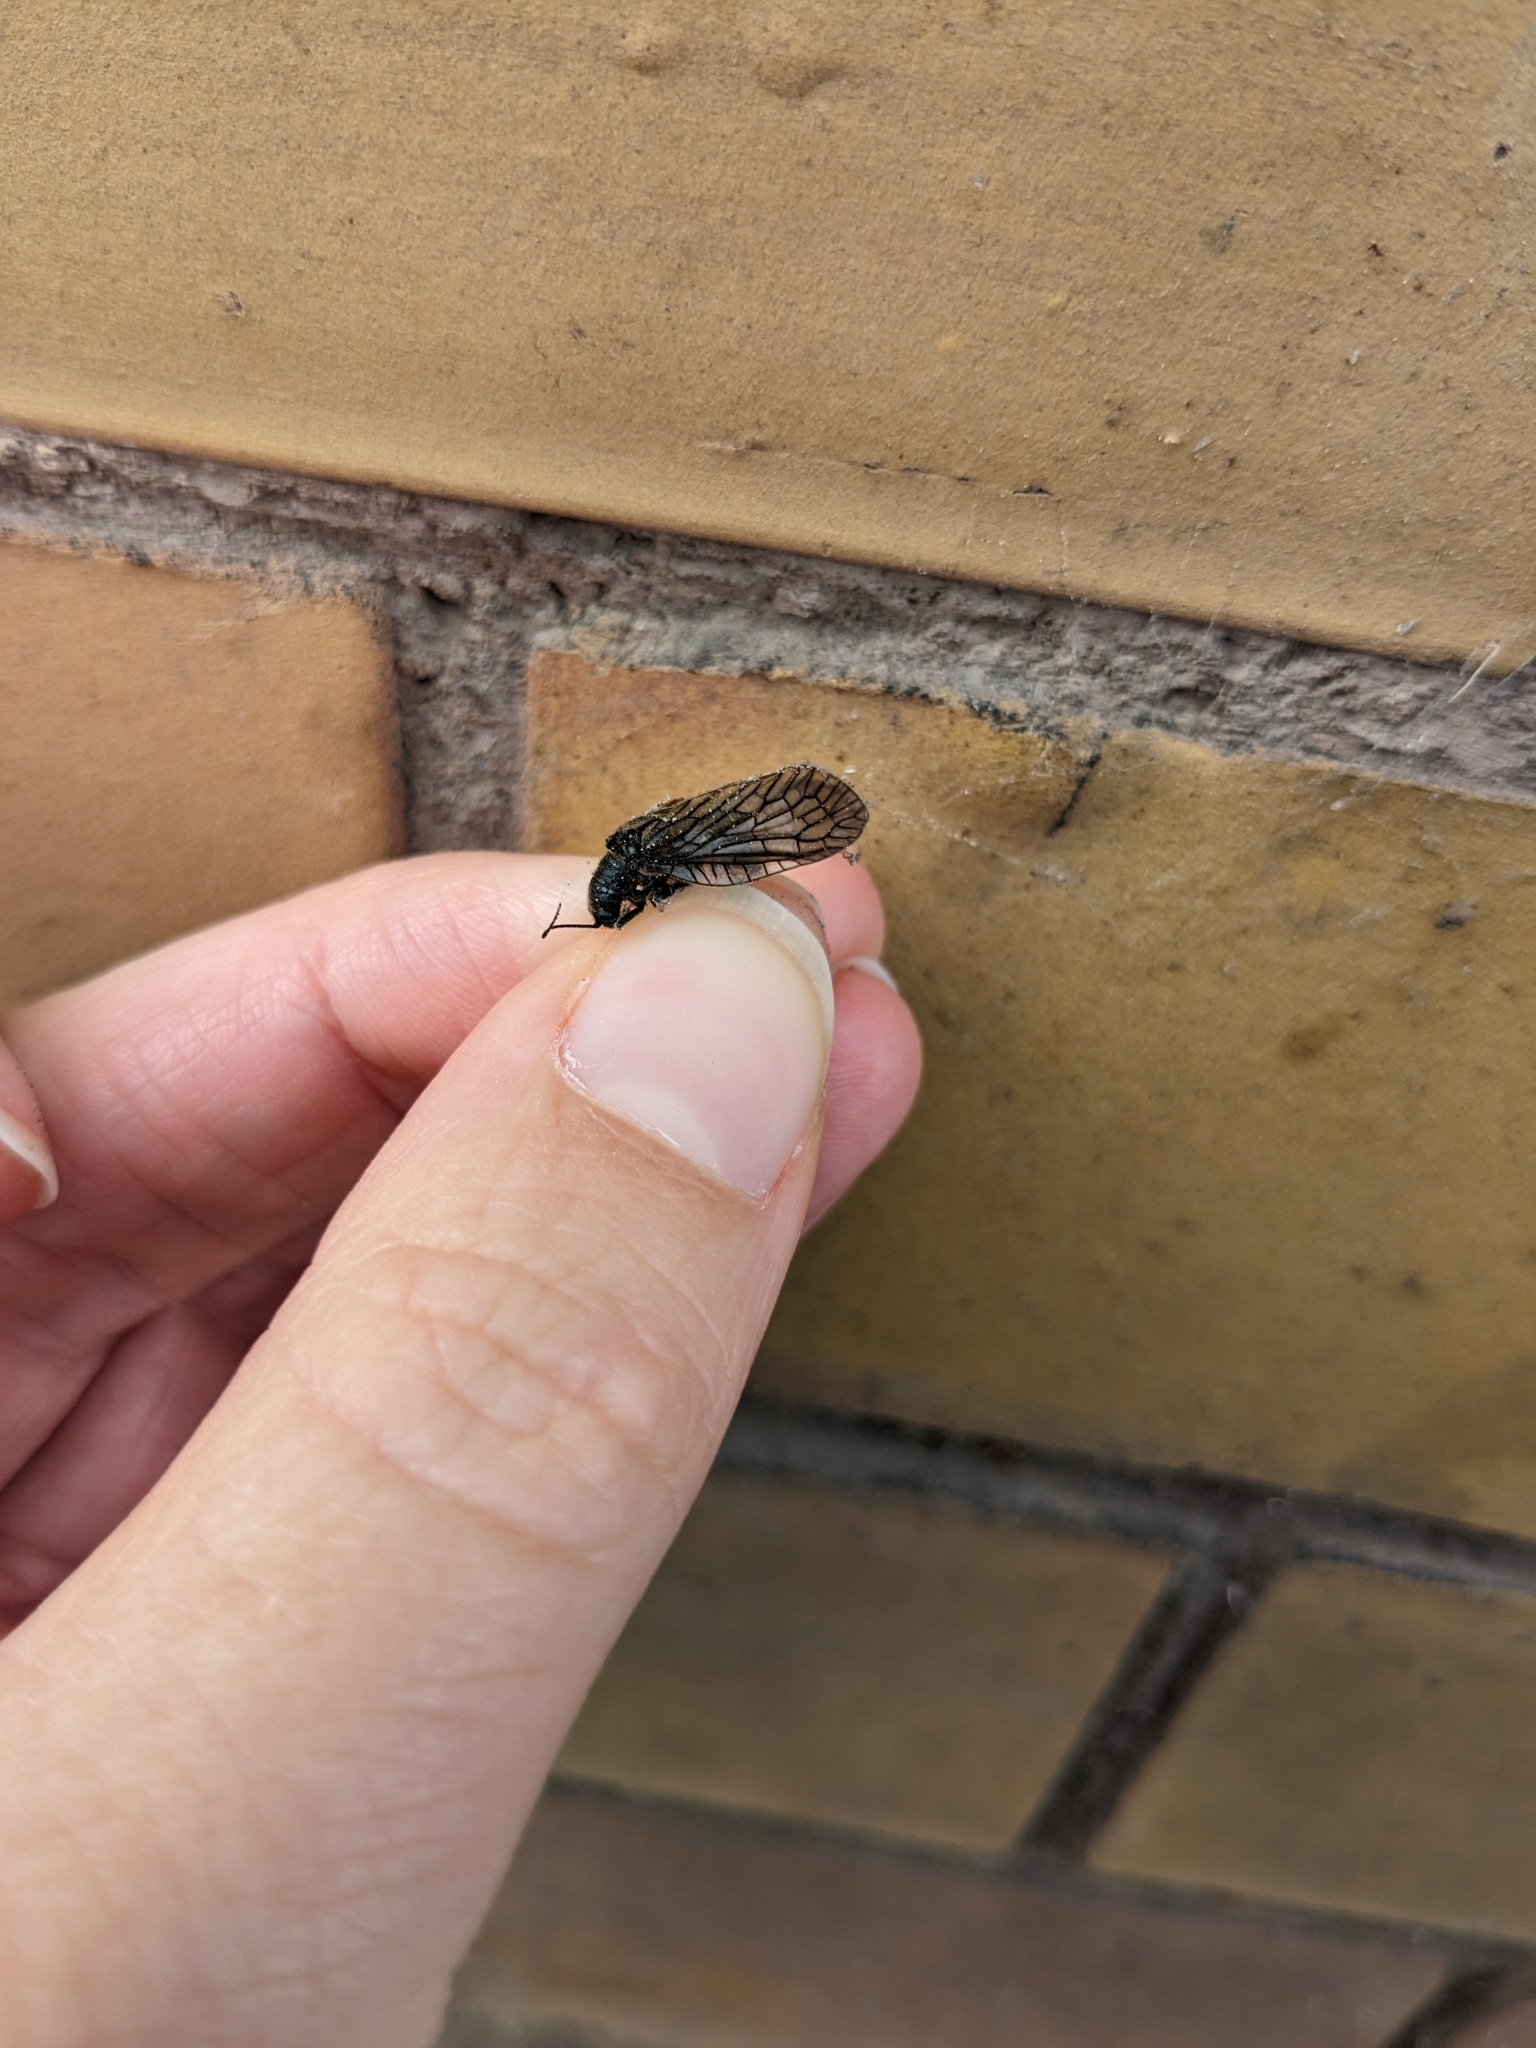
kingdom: Animalia
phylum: Arthropoda
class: Insecta
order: Megaloptera
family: Sialidae
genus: Sialis
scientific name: Sialis
